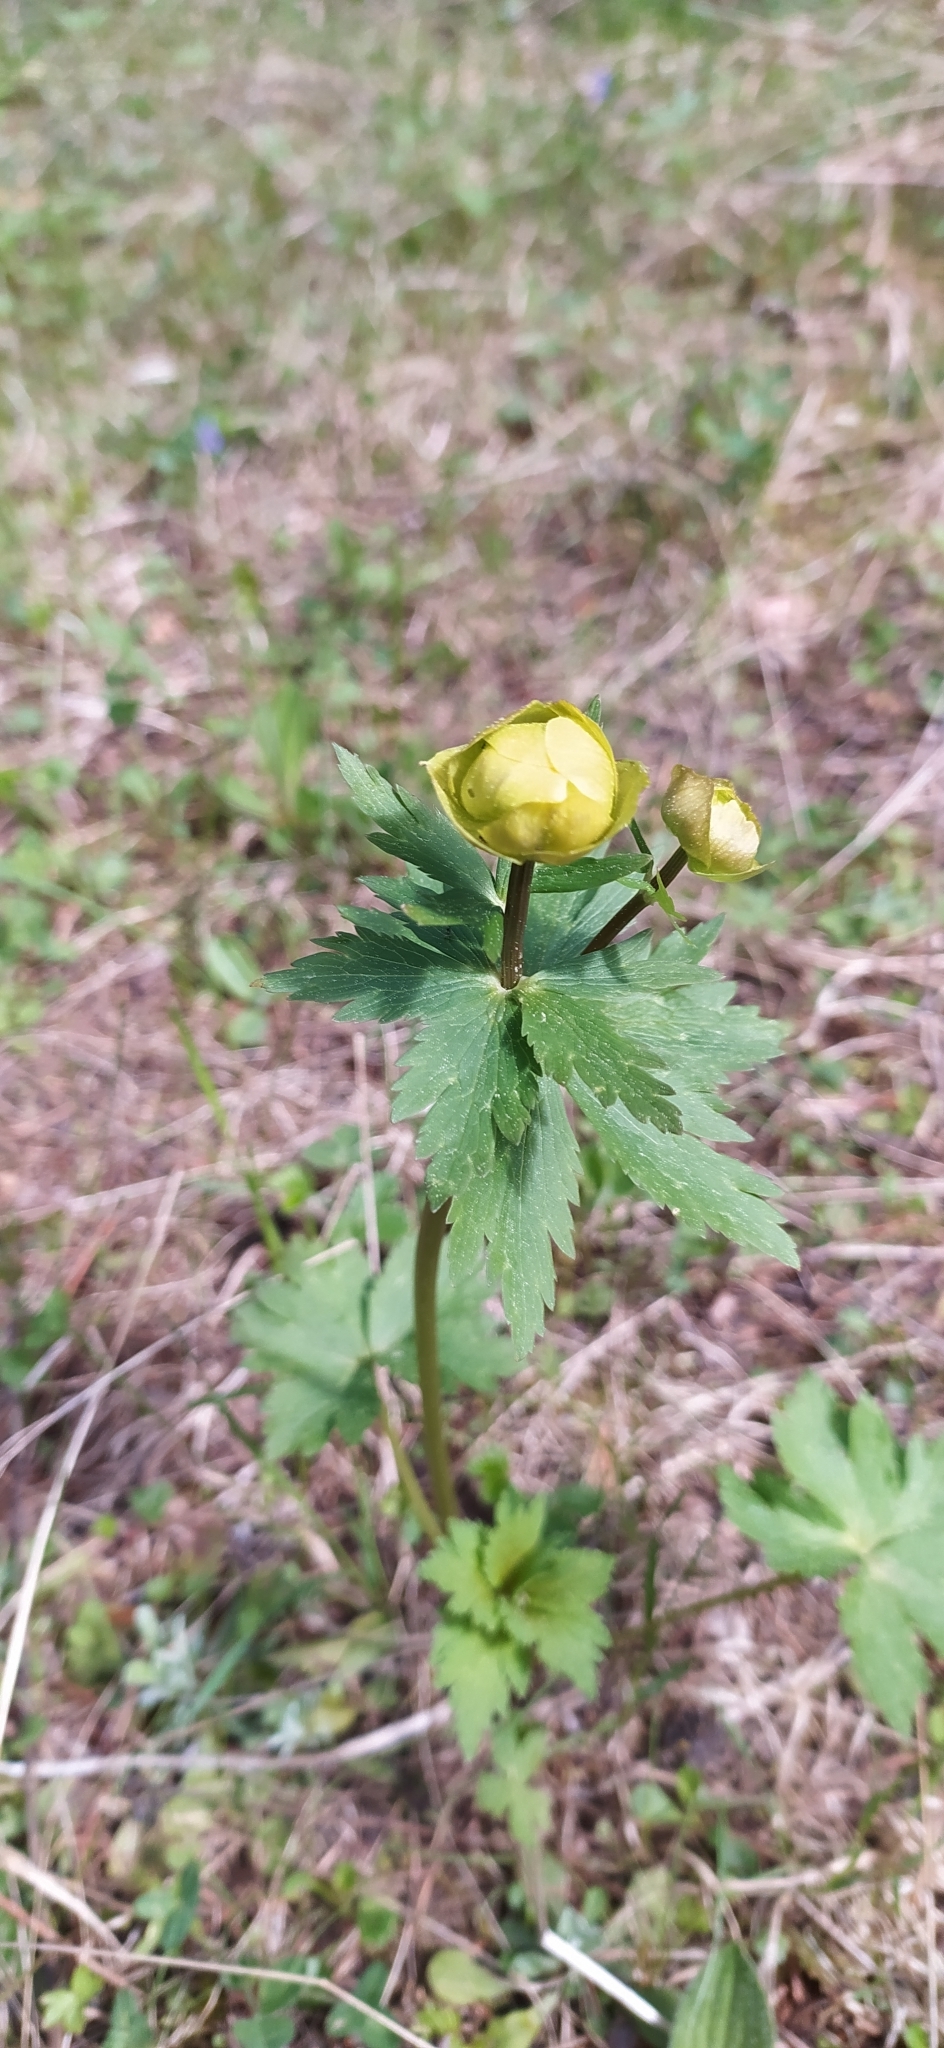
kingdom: Plantae
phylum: Tracheophyta
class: Magnoliopsida
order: Ranunculales
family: Ranunculaceae
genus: Trollius
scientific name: Trollius europaeus
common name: European globeflower
